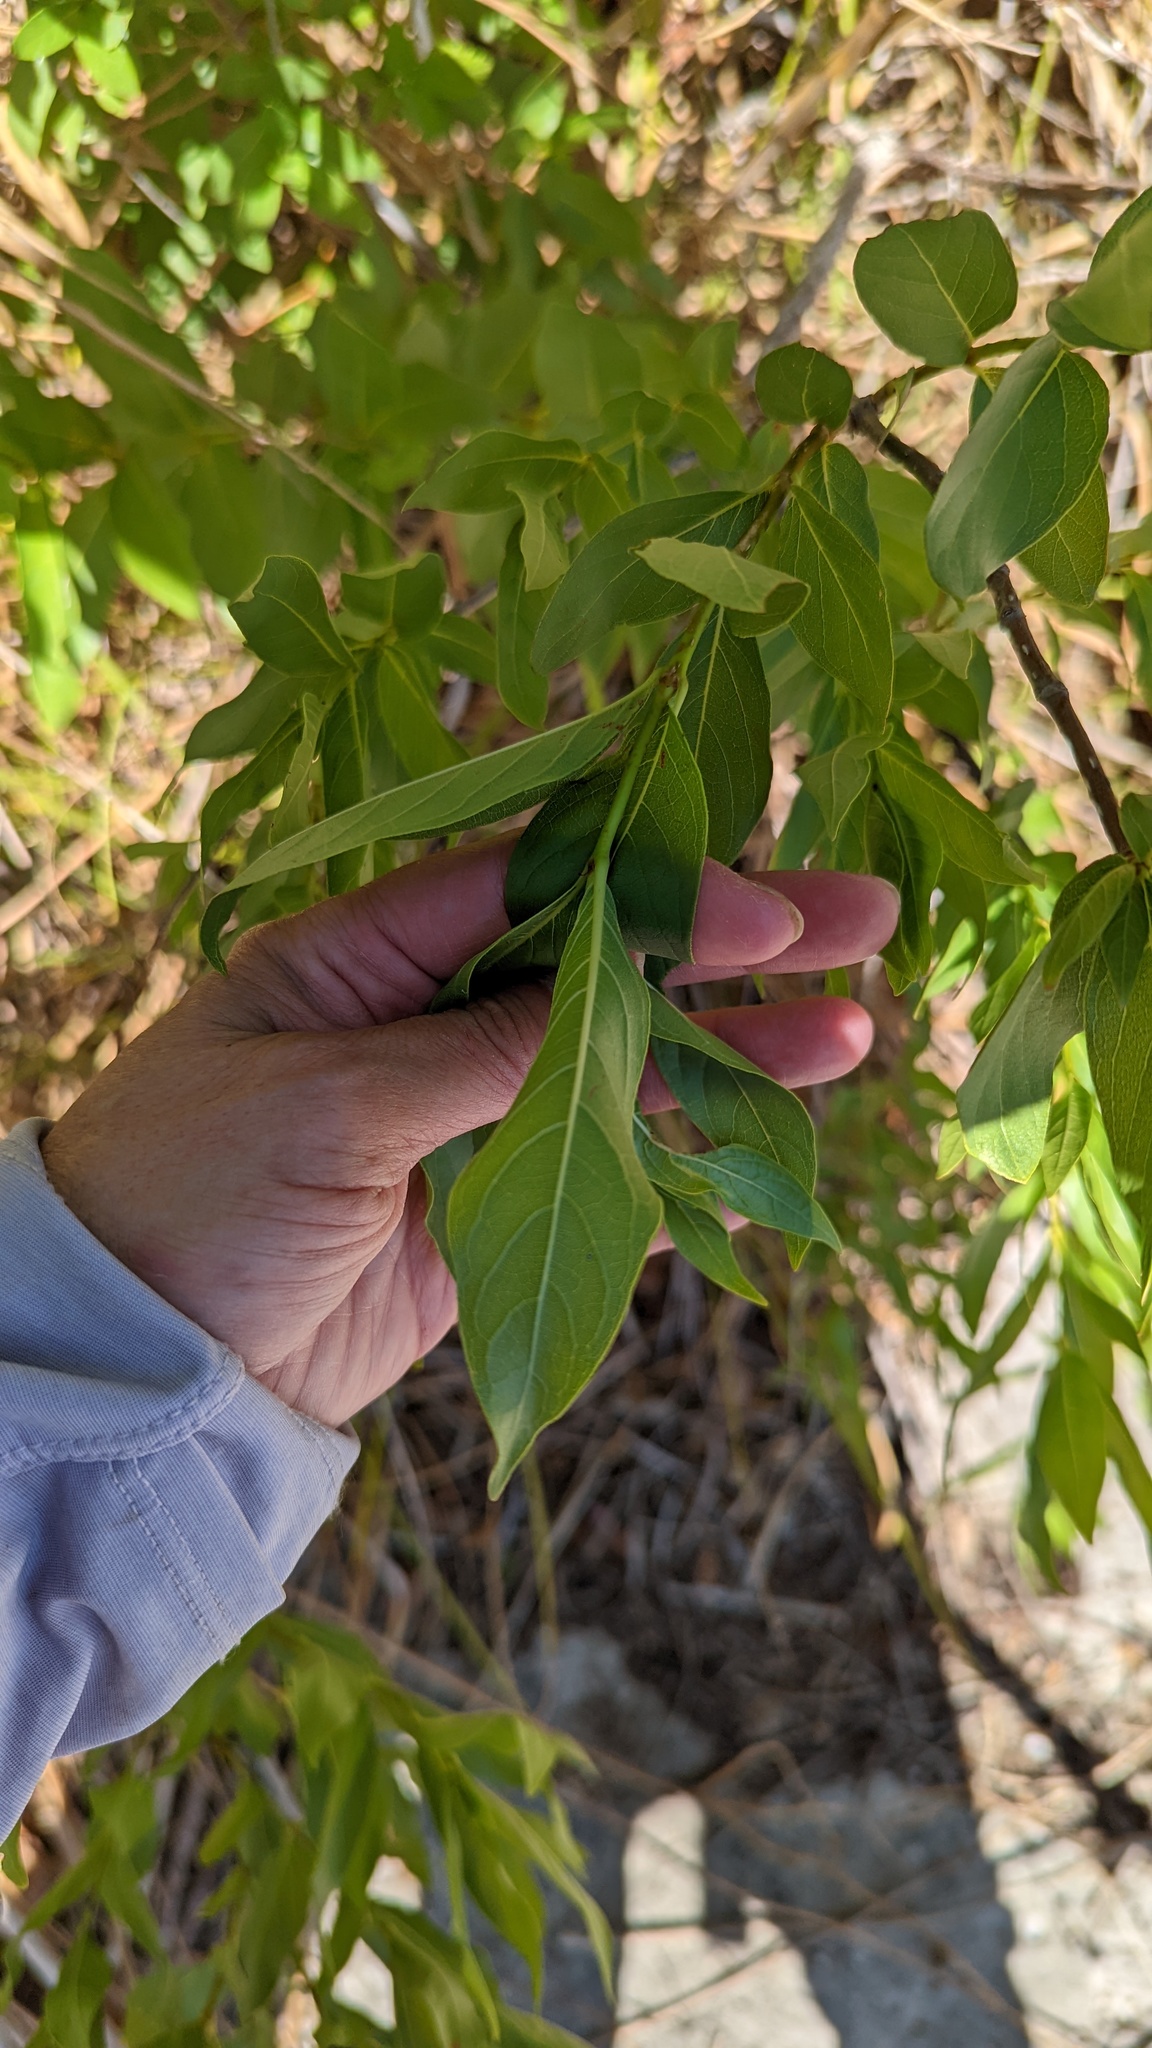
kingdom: Plantae
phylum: Tracheophyta
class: Magnoliopsida
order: Gentianales
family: Rubiaceae
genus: Cephalanthus
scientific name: Cephalanthus occidentalis
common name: Button-willow
